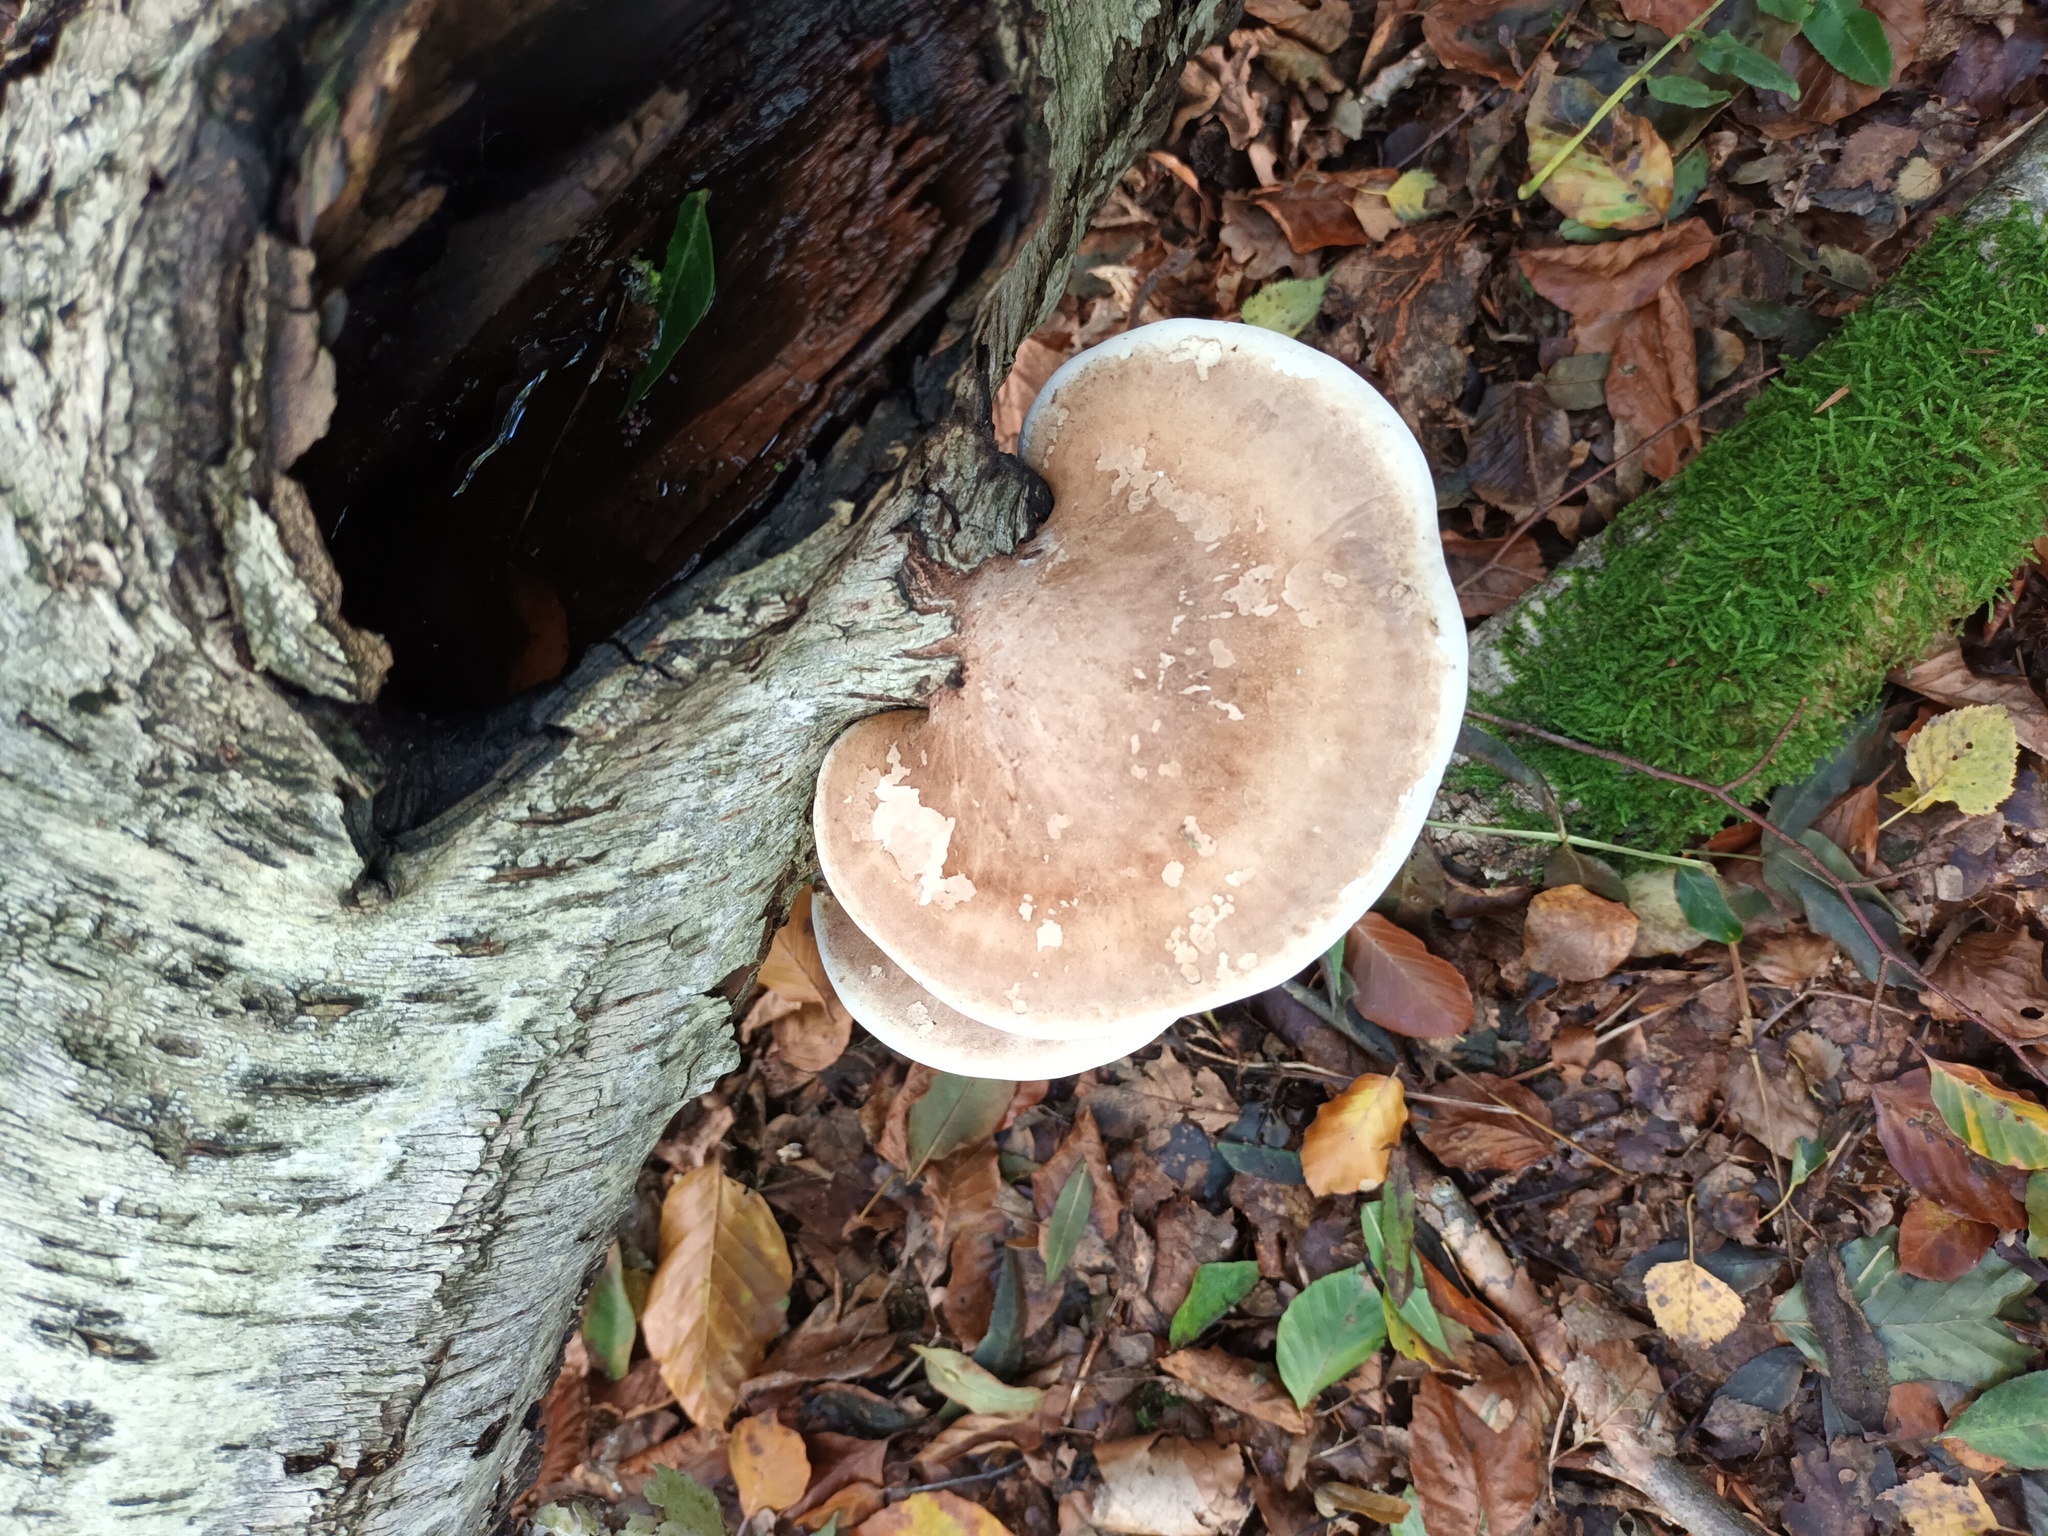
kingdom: Fungi
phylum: Basidiomycota
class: Agaricomycetes
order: Polyporales
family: Fomitopsidaceae
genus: Fomitopsis
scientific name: Fomitopsis betulina
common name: Birch polypore
